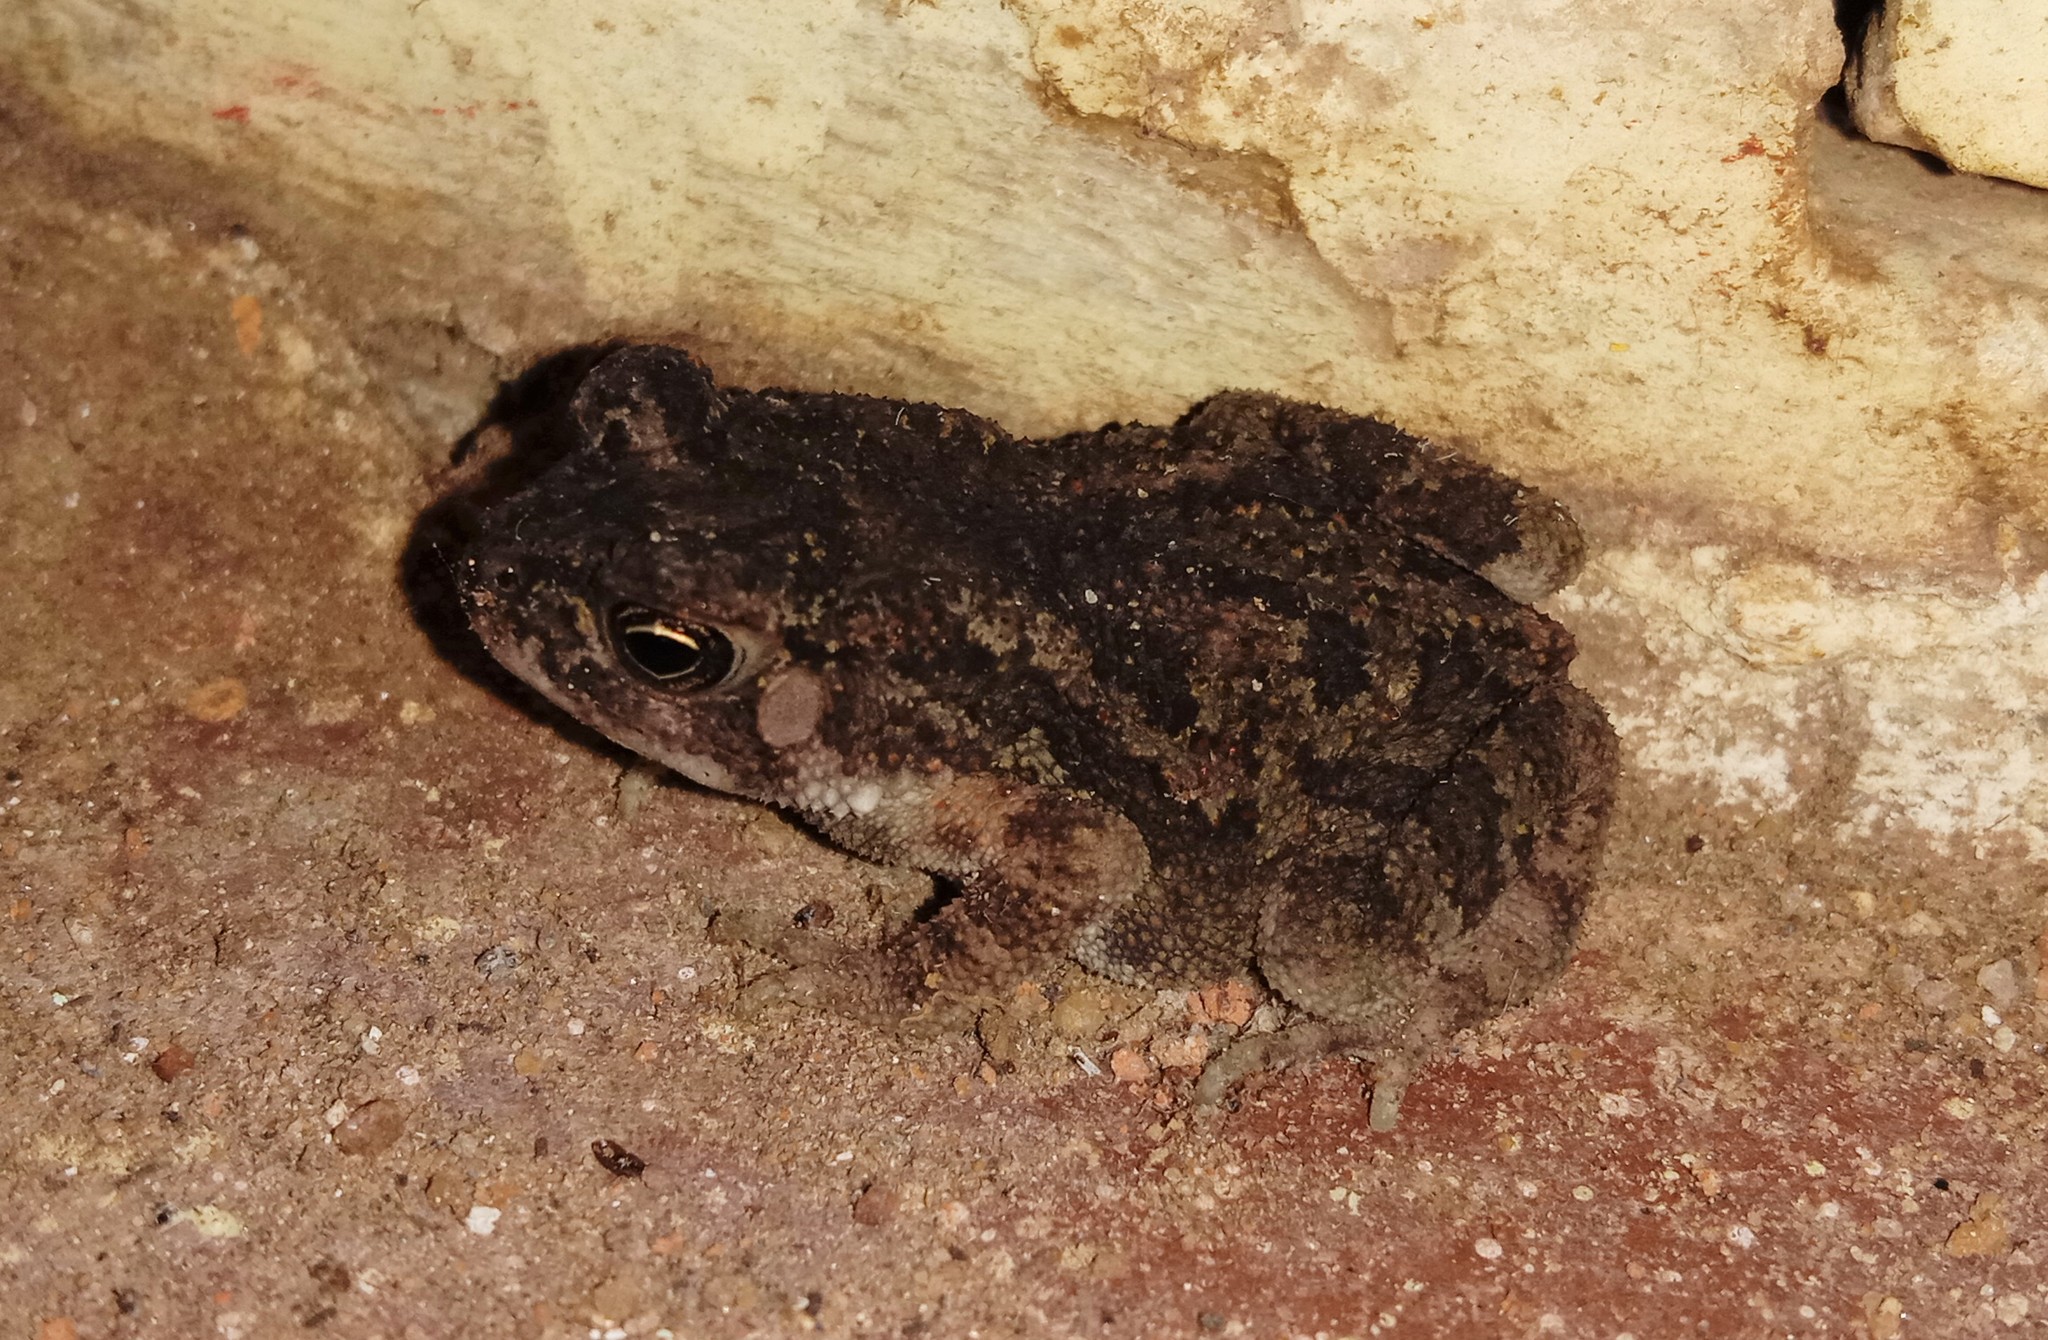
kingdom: Animalia
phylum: Chordata
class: Amphibia
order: Anura
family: Bufonidae
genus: Duttaphrynus
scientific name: Duttaphrynus melanostictus
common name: Common sunda toad
